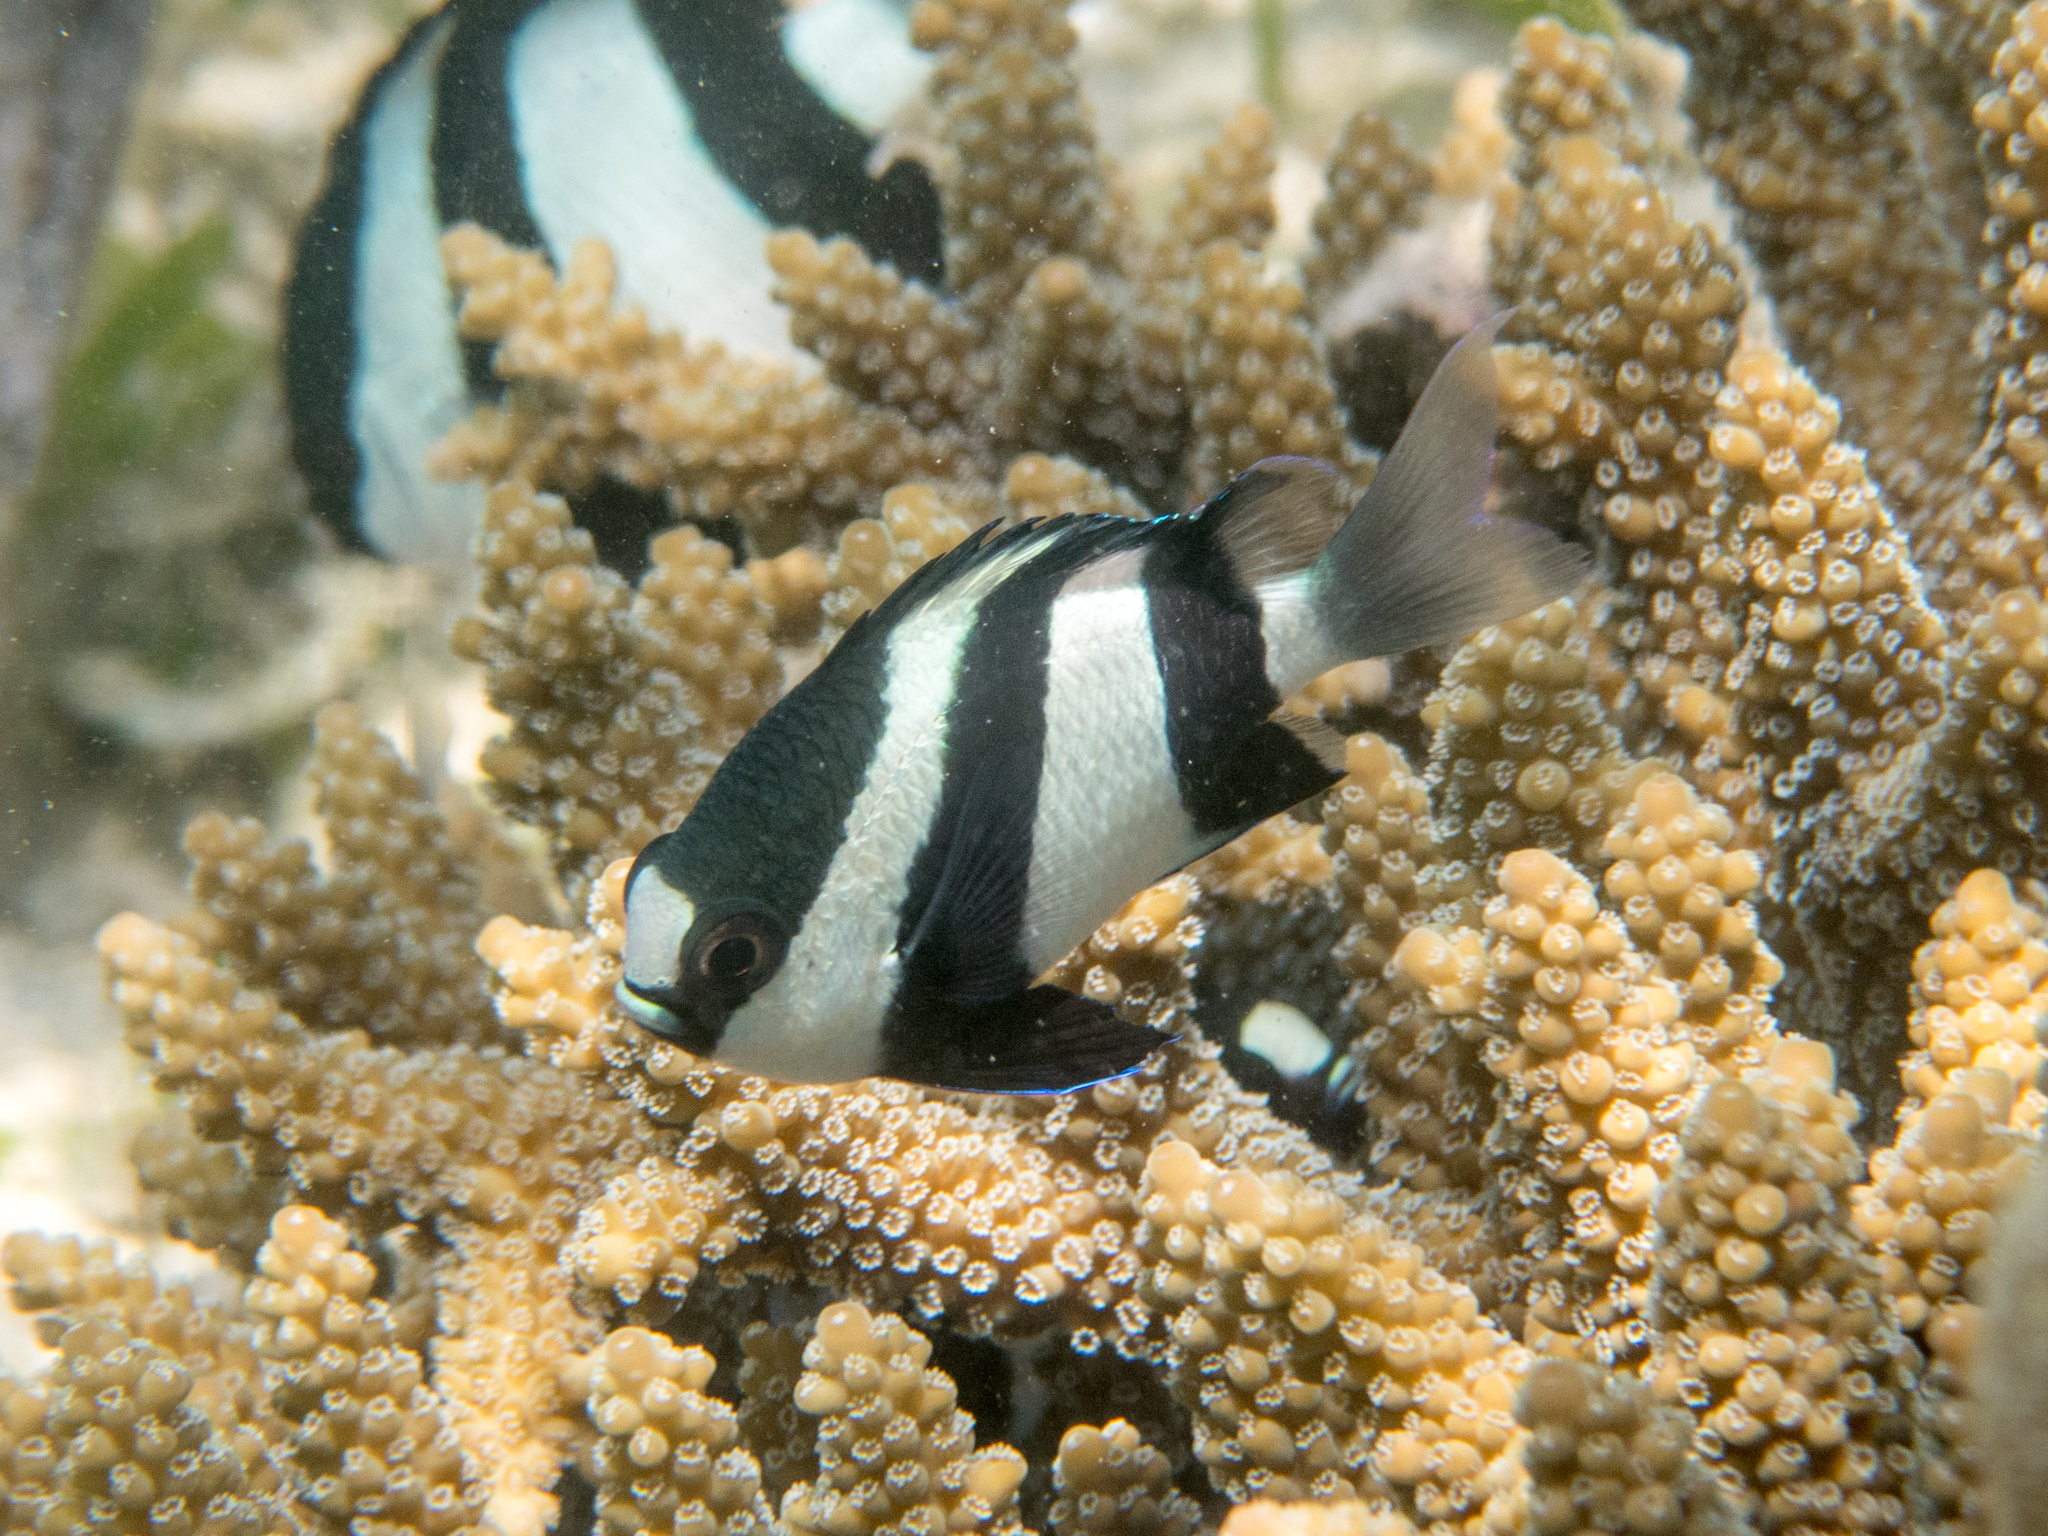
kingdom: Animalia
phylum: Chordata
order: Perciformes
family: Pomacentridae
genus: Dascyllus
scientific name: Dascyllus abudafur
